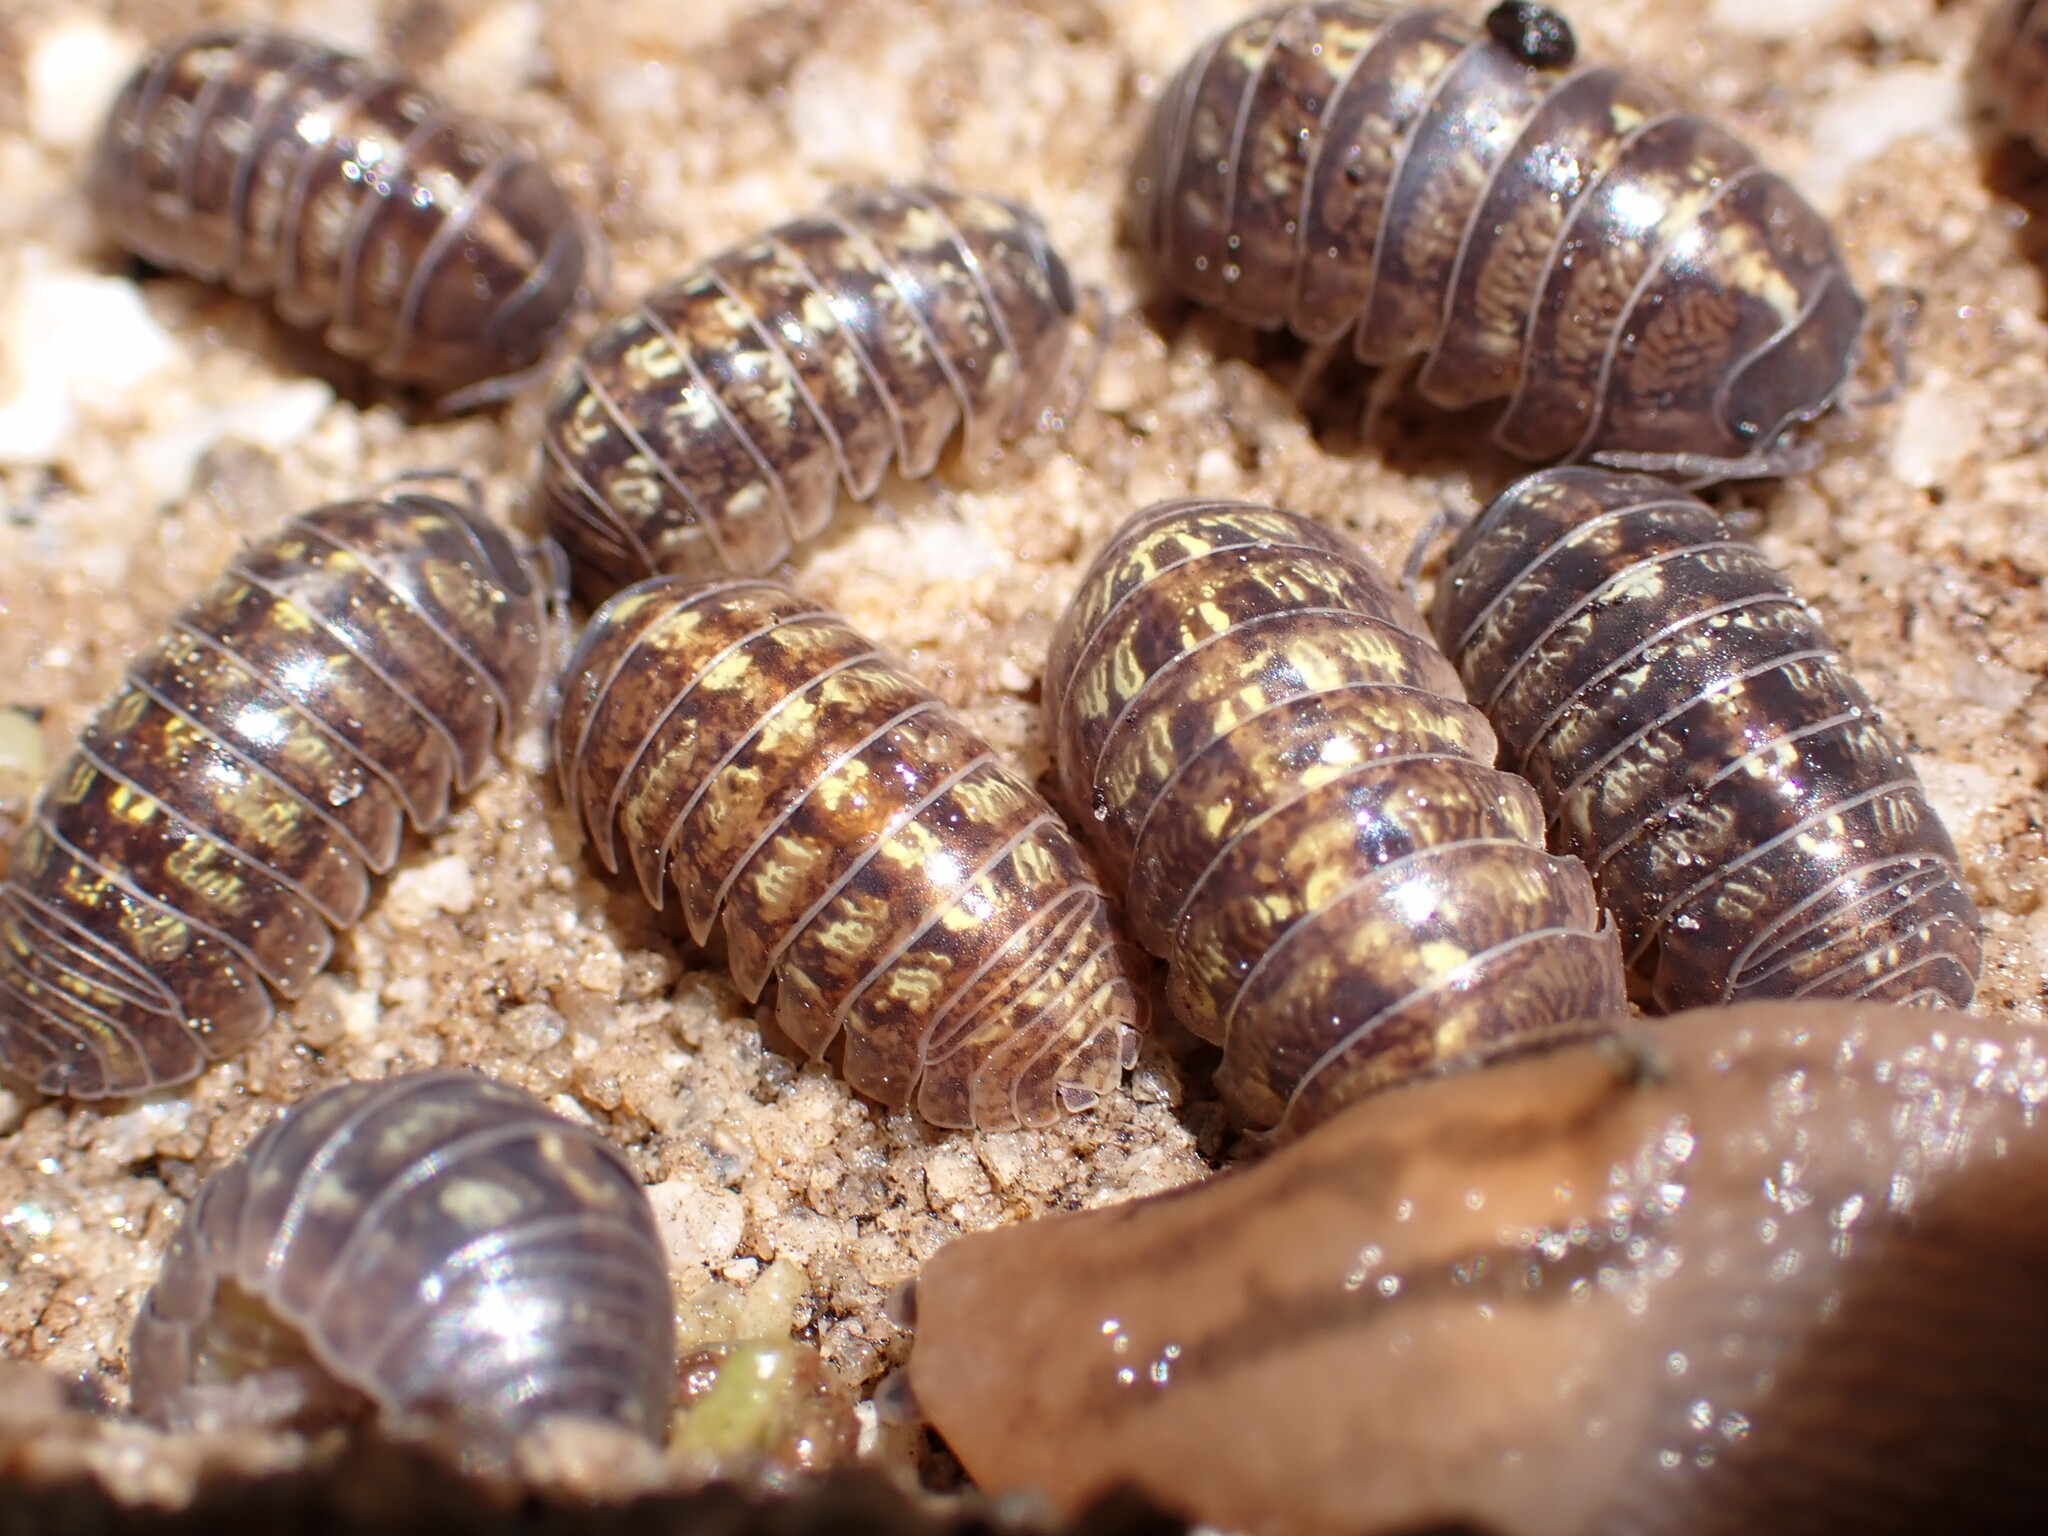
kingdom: Animalia
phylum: Arthropoda
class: Malacostraca
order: Isopoda
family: Armadillidiidae
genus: Armadillidium
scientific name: Armadillidium vulgare
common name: Common pill woodlouse
